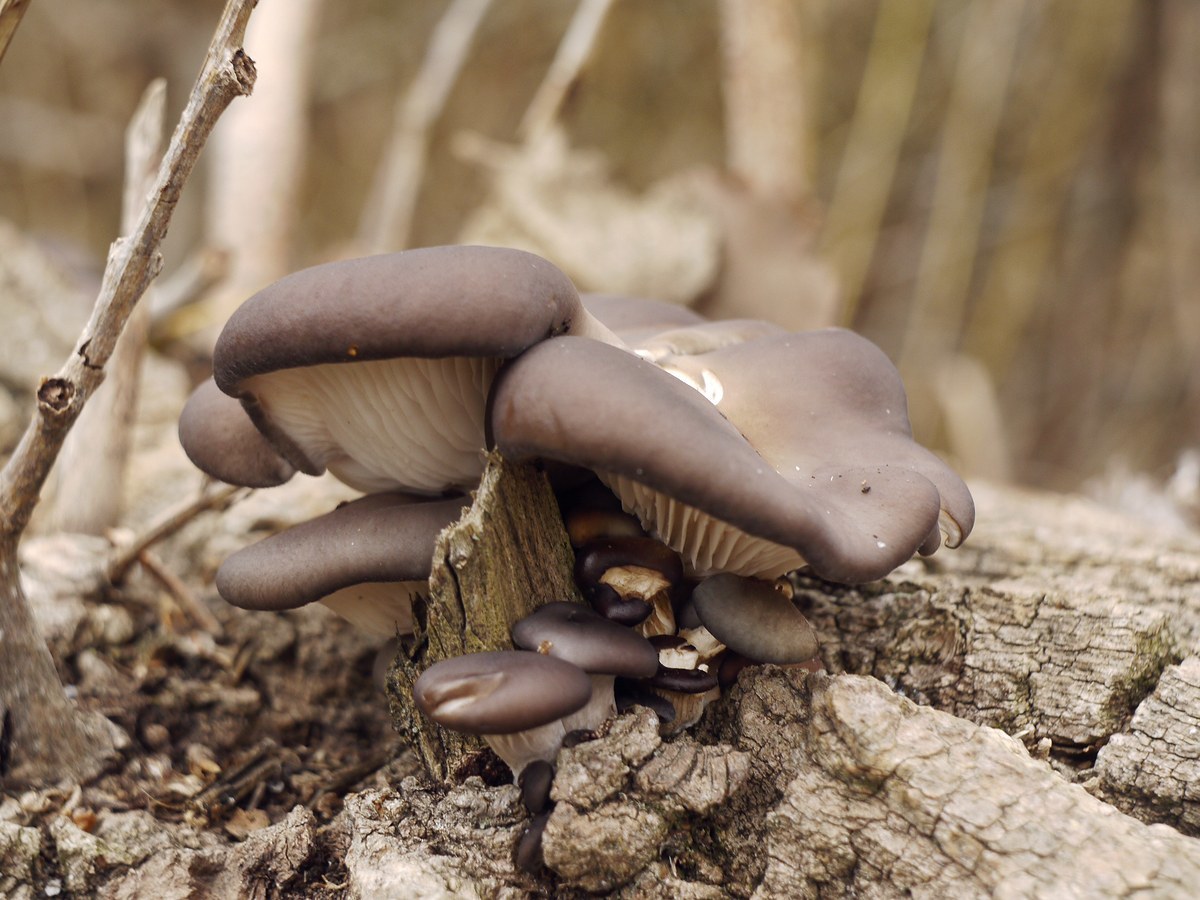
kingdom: Fungi
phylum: Basidiomycota
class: Agaricomycetes
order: Agaricales
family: Pleurotaceae
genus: Pleurotus
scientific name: Pleurotus ostreatus
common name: Oyster mushroom
